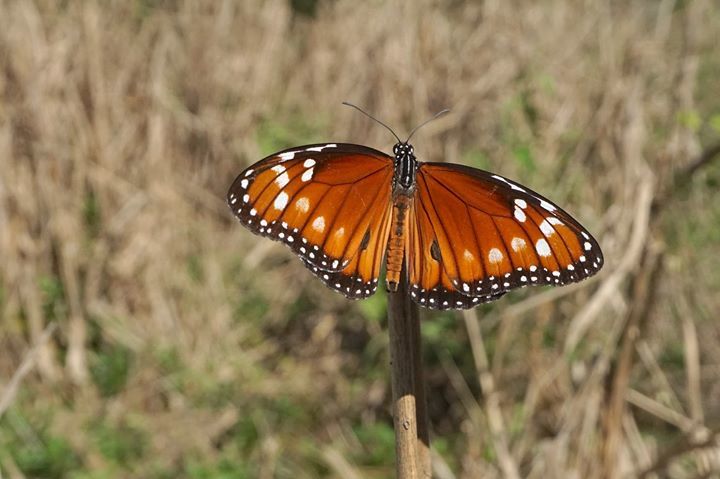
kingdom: Animalia
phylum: Arthropoda
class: Insecta
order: Lepidoptera
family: Nymphalidae
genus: Danaus
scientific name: Danaus eresimus
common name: Soldier
